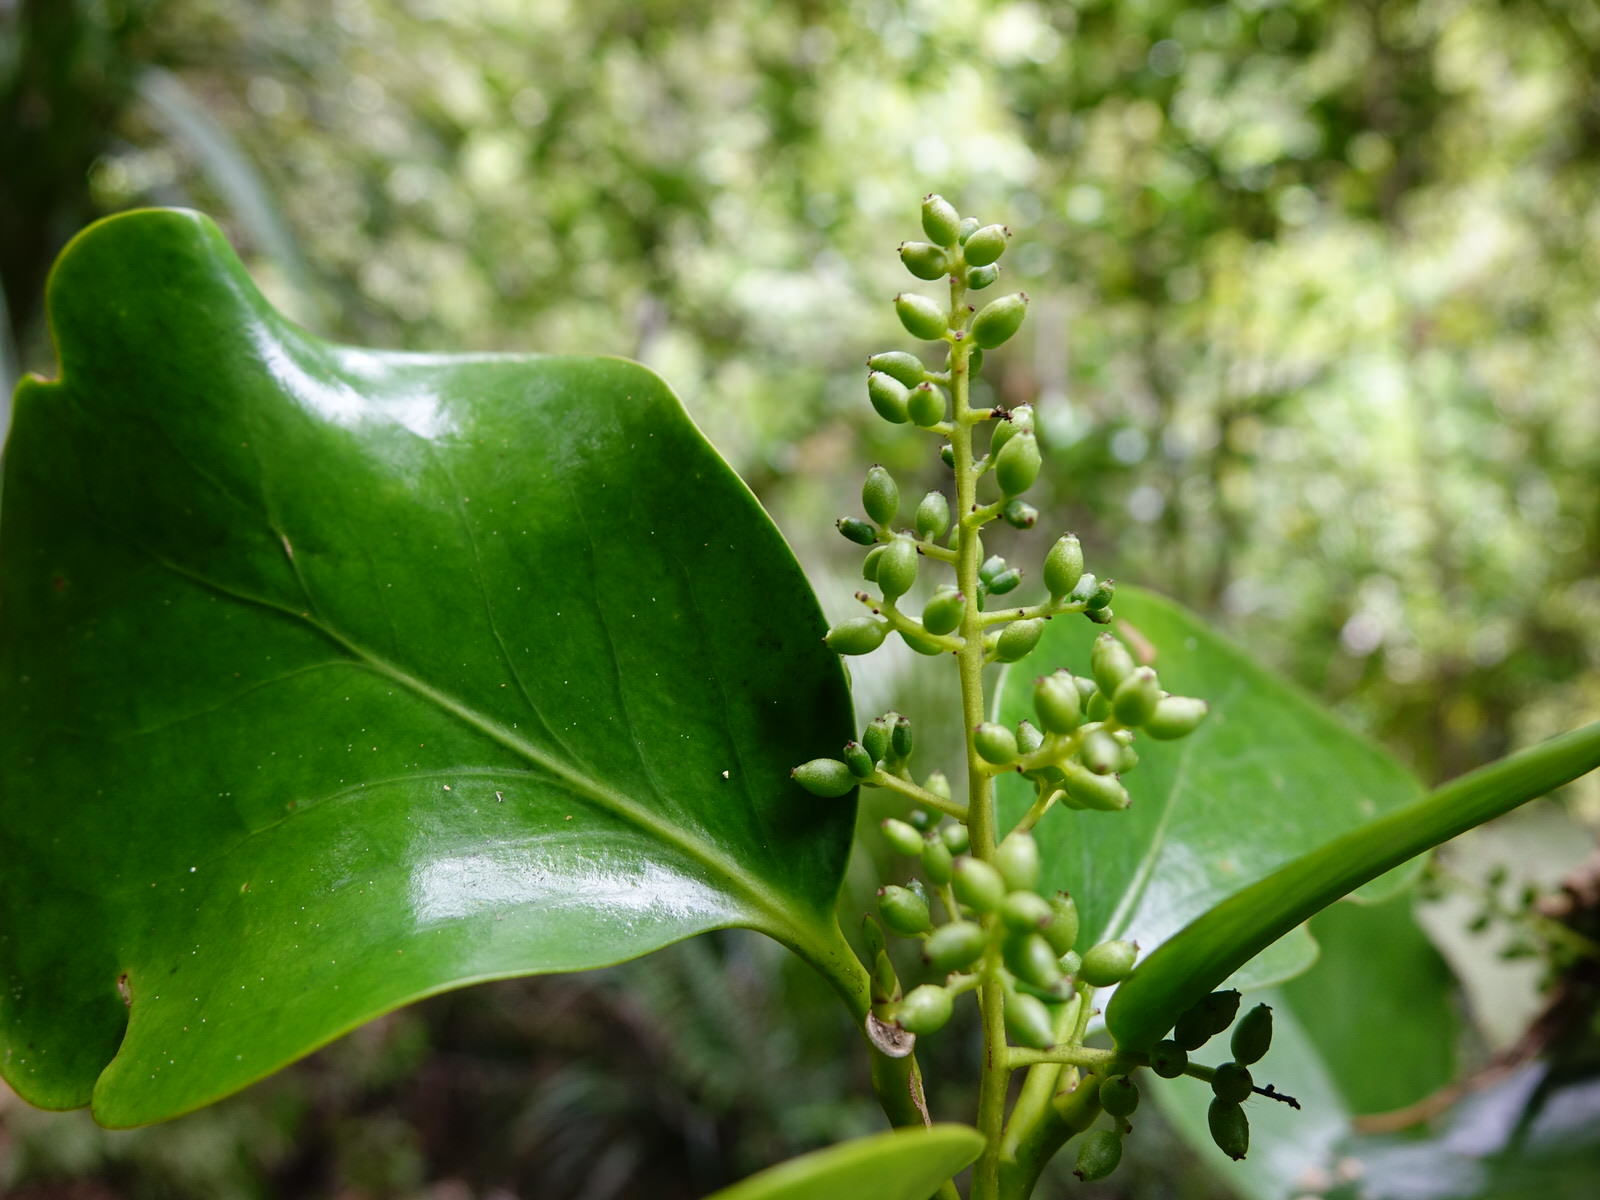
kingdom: Plantae
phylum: Tracheophyta
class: Magnoliopsida
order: Apiales
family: Griseliniaceae
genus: Griselinia
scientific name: Griselinia lucida
